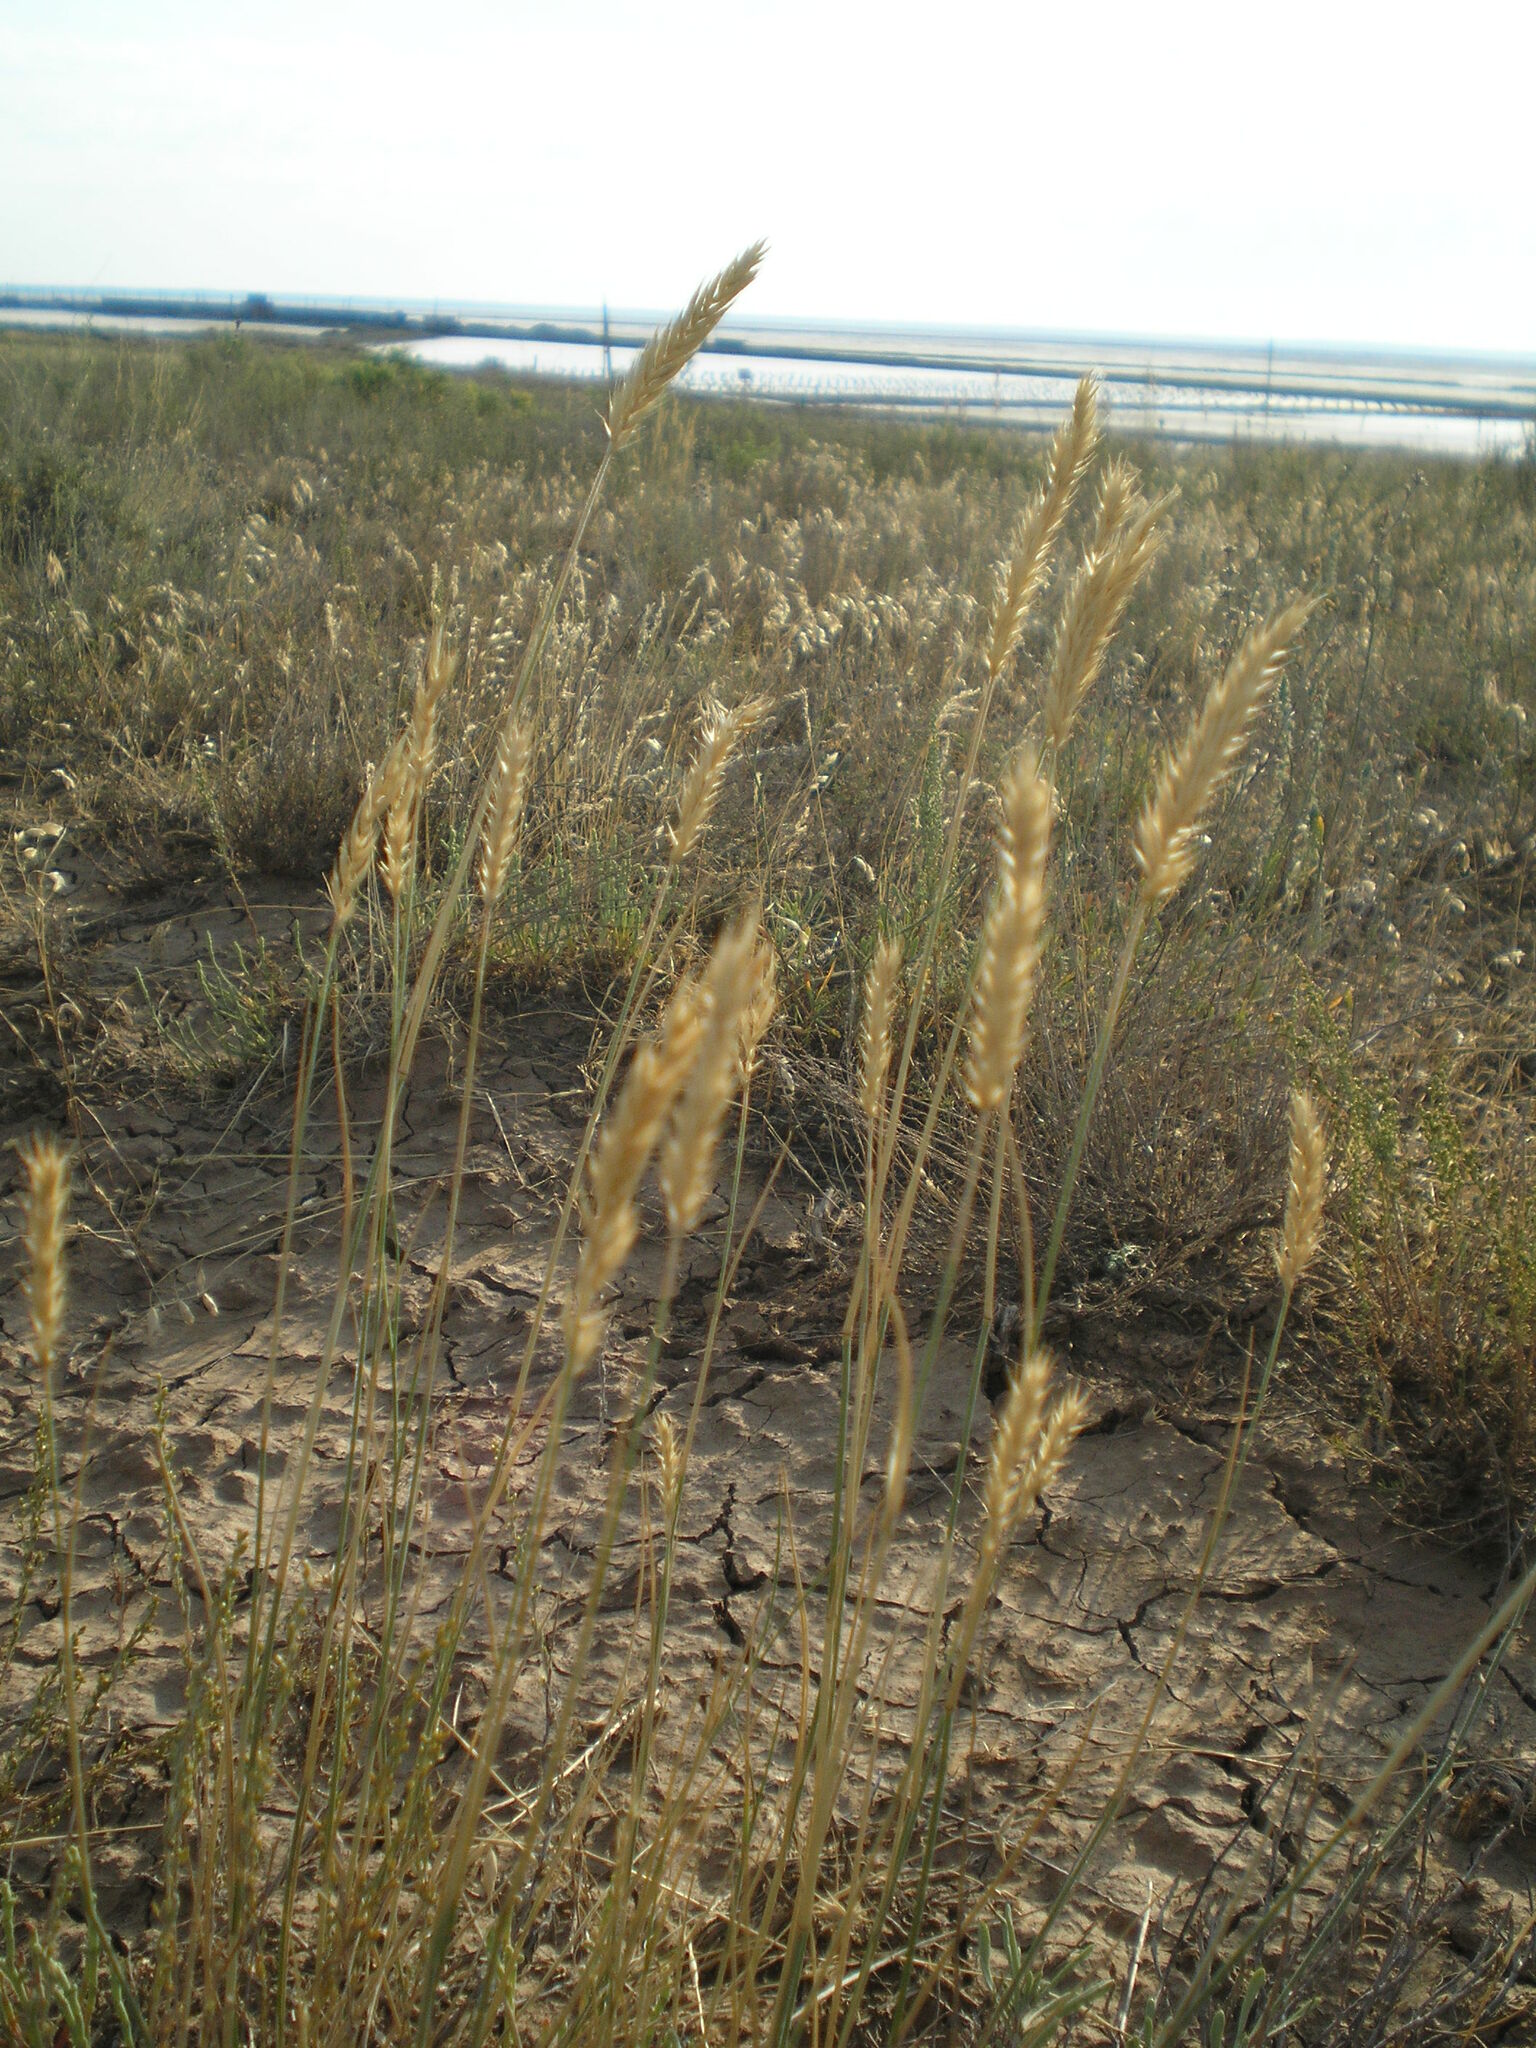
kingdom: Plantae
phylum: Tracheophyta
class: Liliopsida
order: Poales
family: Poaceae
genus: Agropyron
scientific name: Agropyron cristatum
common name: Crested wheatgrass
